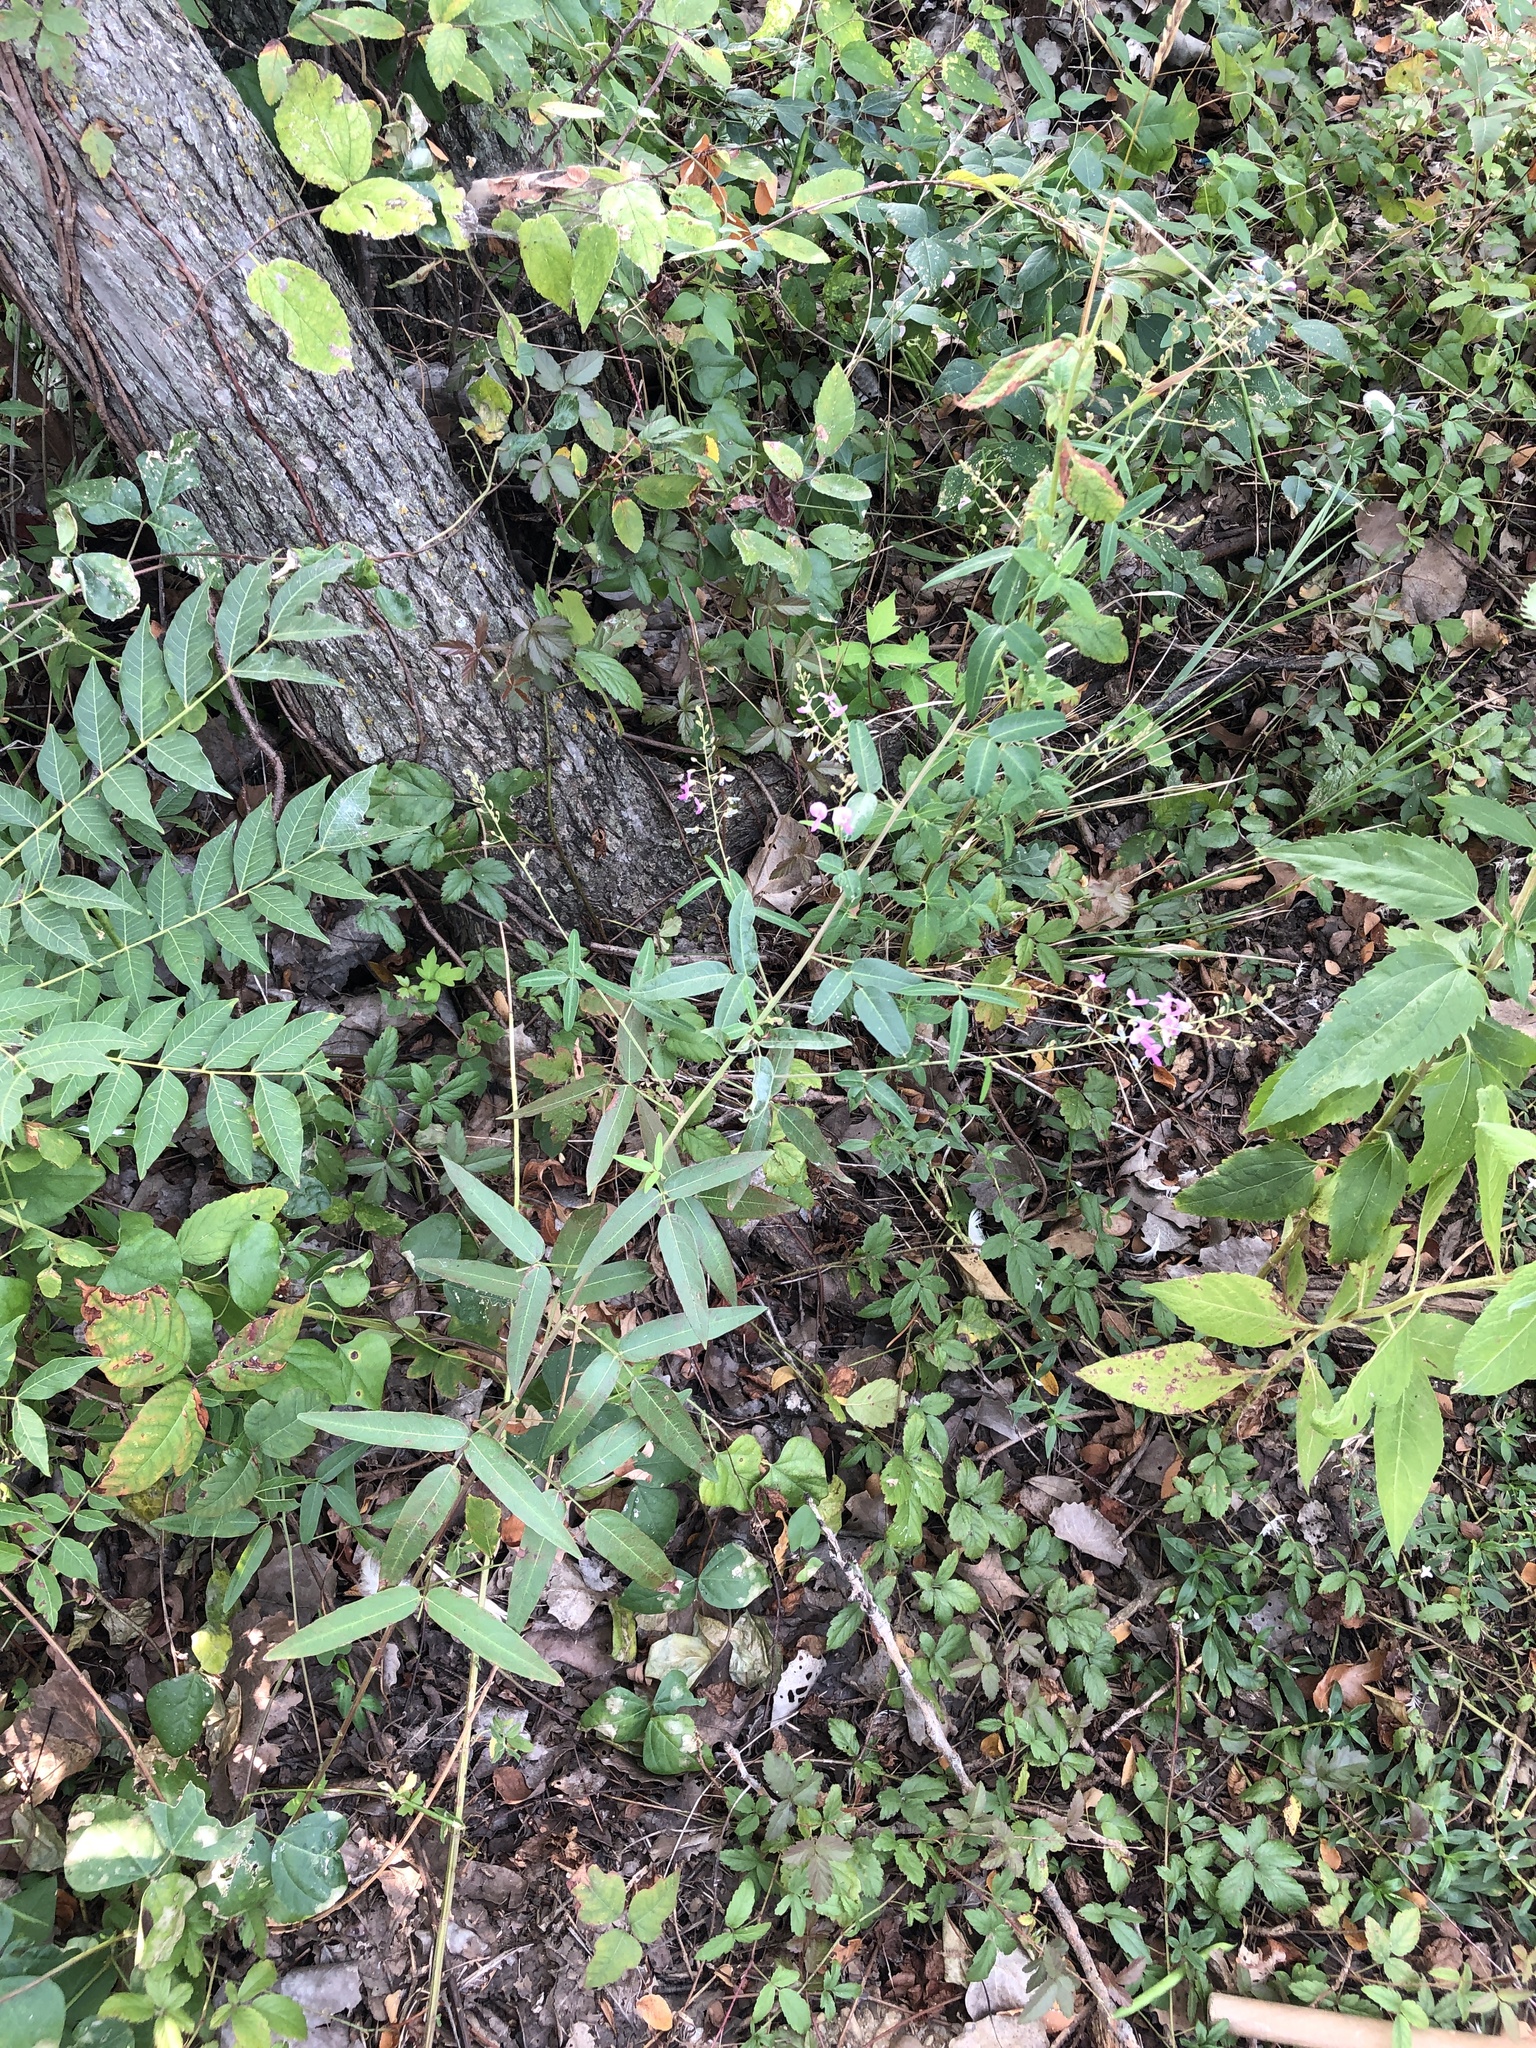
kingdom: Plantae
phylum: Tracheophyta
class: Magnoliopsida
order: Fabales
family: Fabaceae
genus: Desmodium
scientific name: Desmodium paniculatum
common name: Panicled tick-clover
